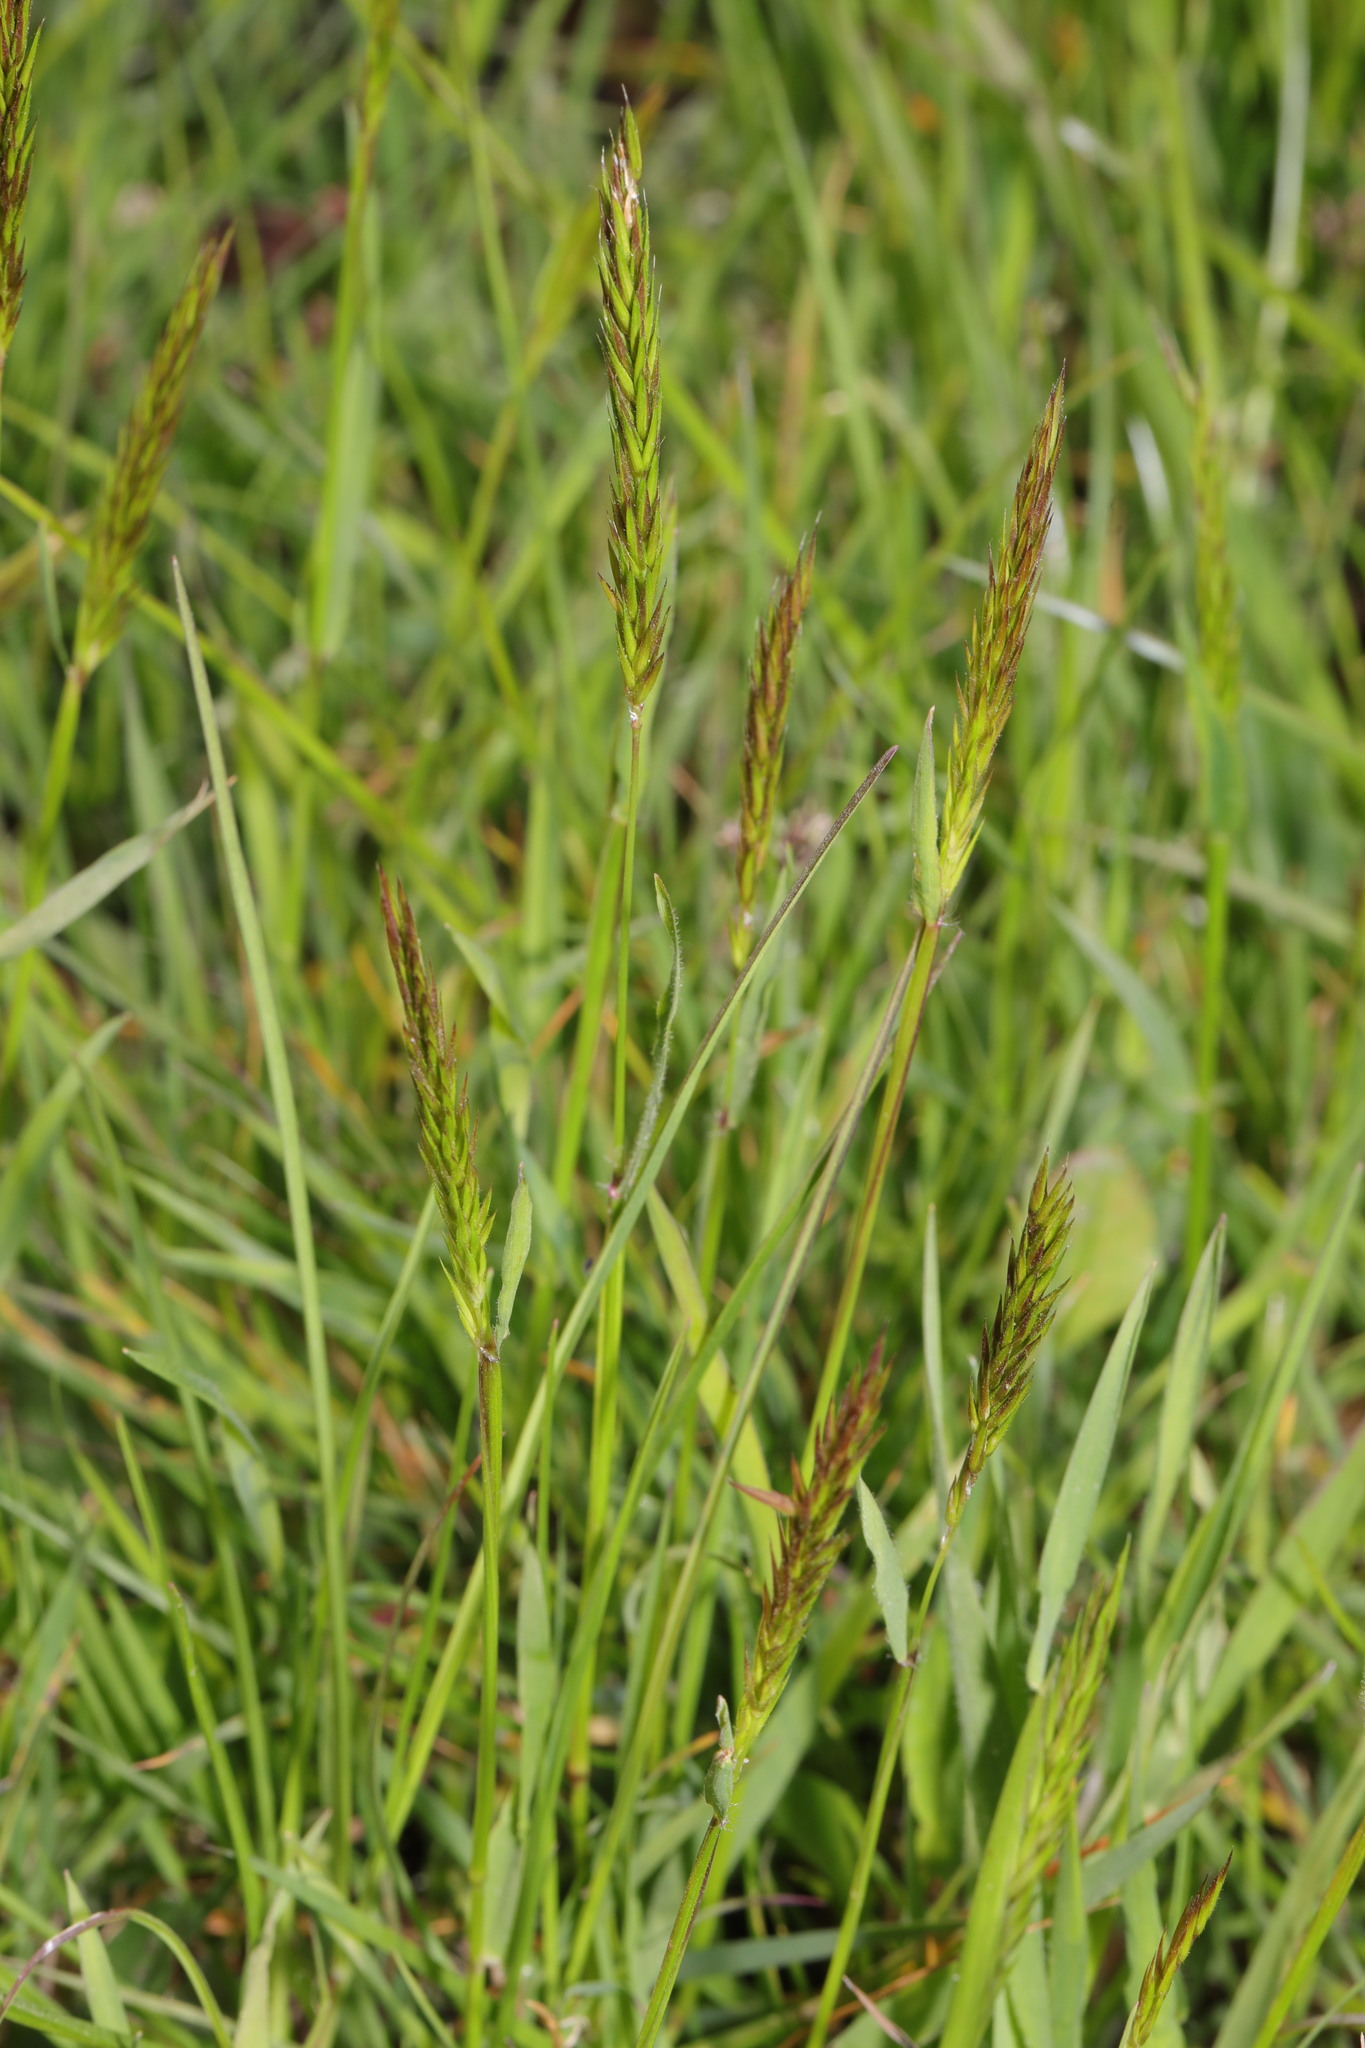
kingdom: Plantae
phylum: Tracheophyta
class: Liliopsida
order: Poales
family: Poaceae
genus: Anthoxanthum
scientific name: Anthoxanthum odoratum
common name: Sweet vernalgrass
